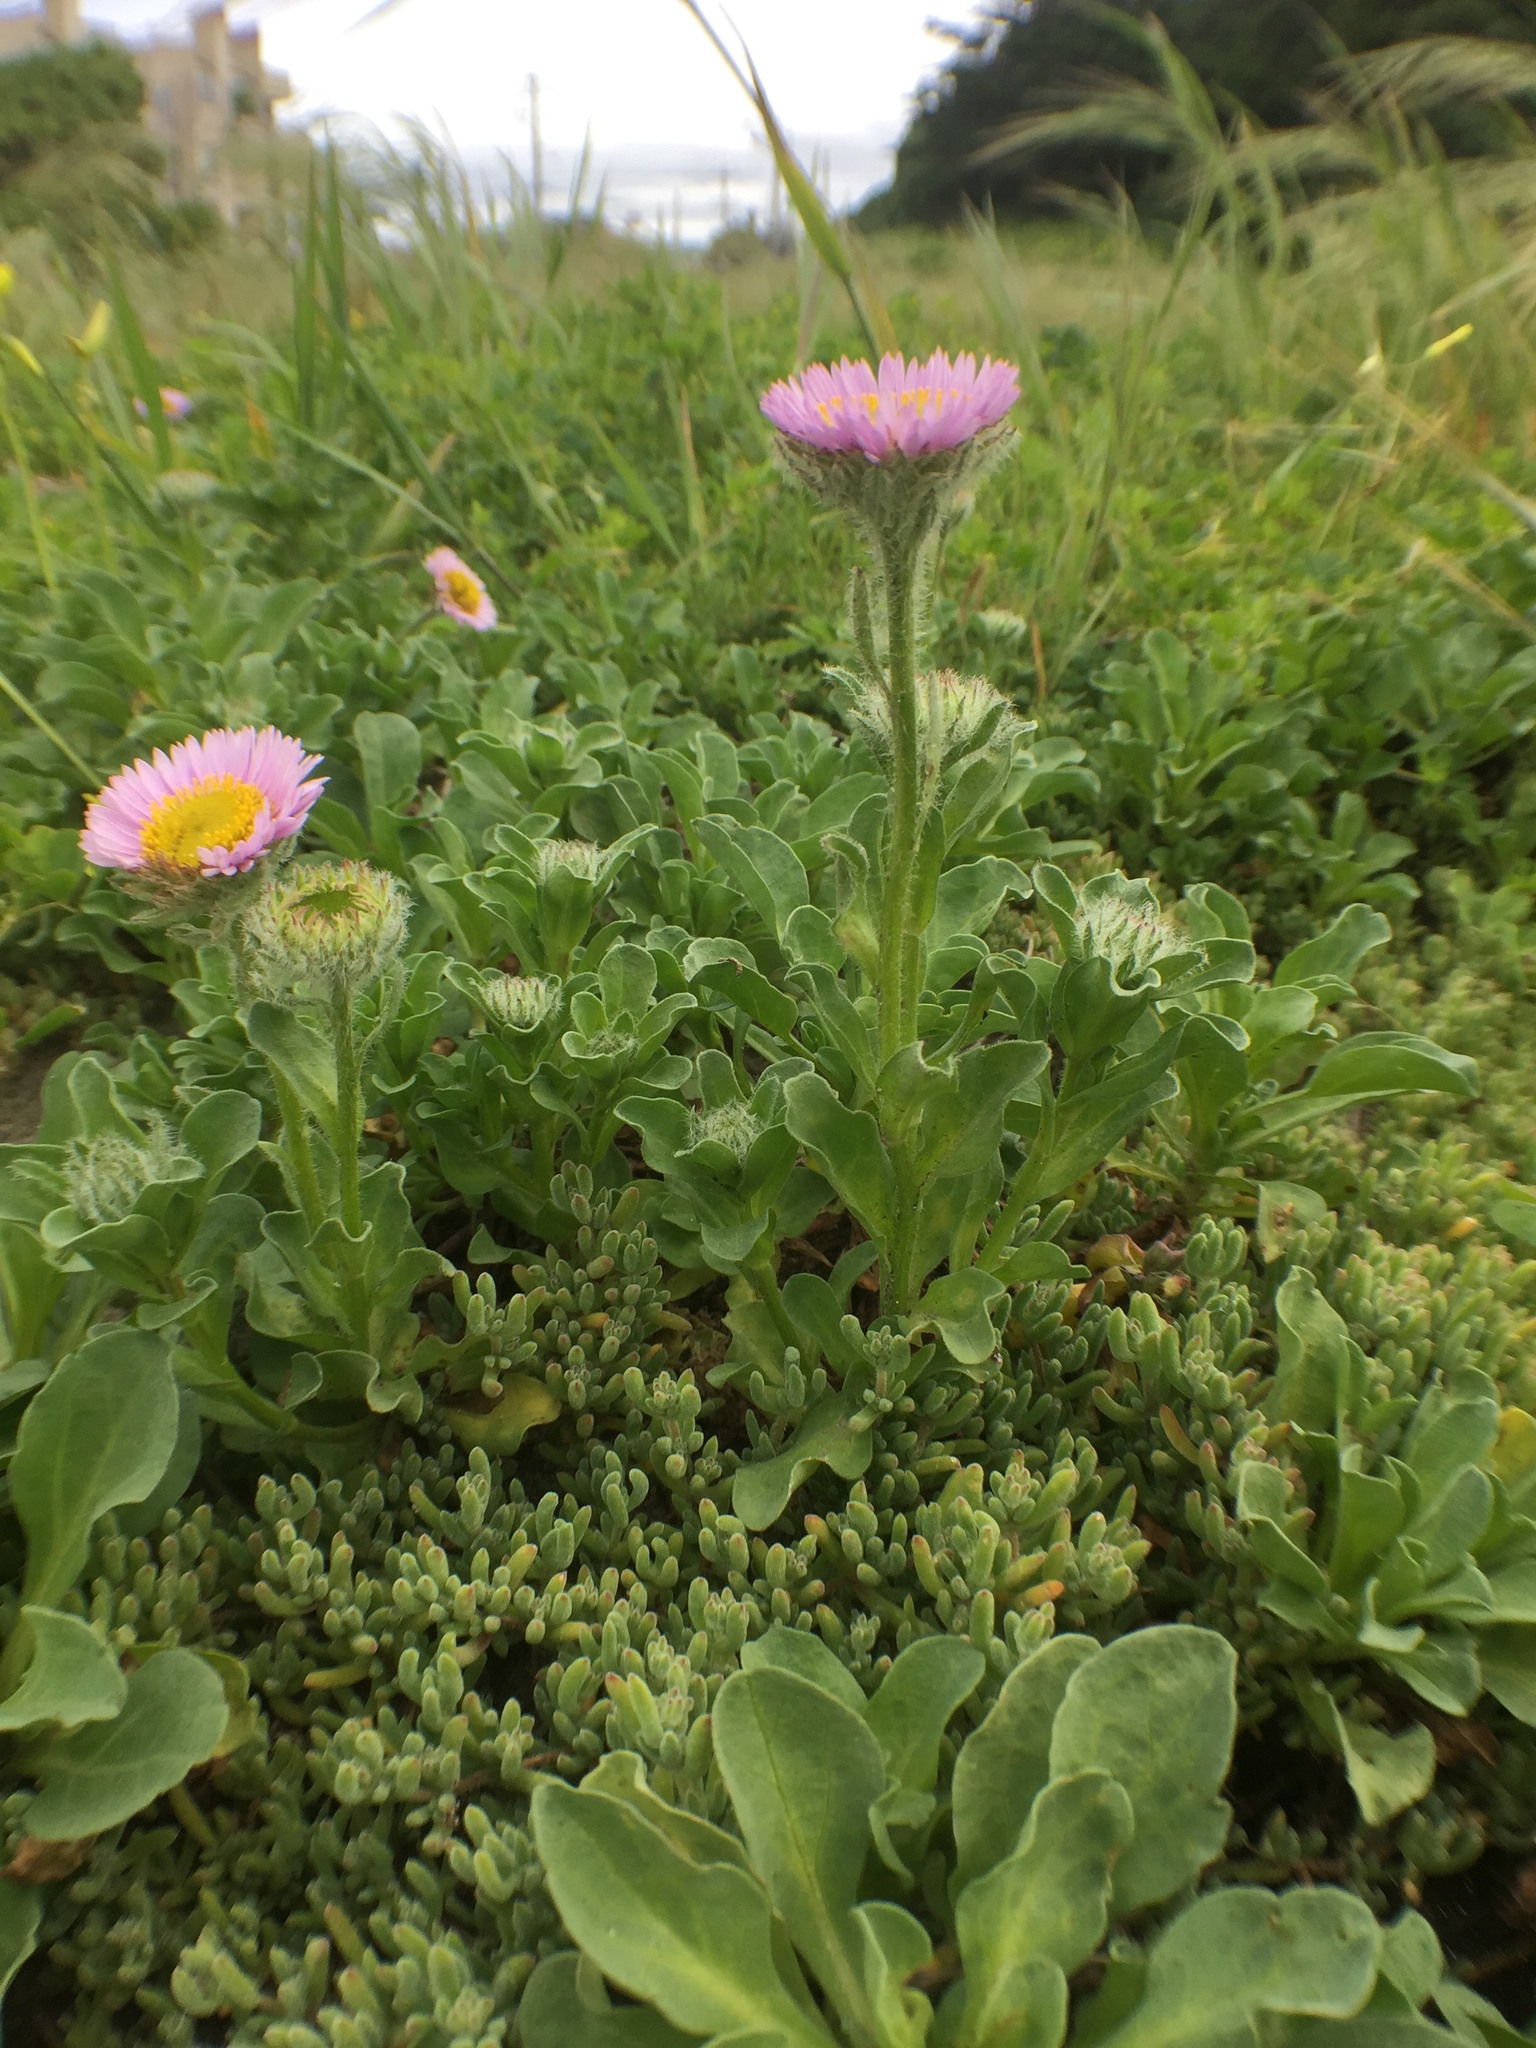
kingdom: Plantae
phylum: Tracheophyta
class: Magnoliopsida
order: Asterales
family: Asteraceae
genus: Erigeron
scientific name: Erigeron glaucus
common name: Seaside daisy
